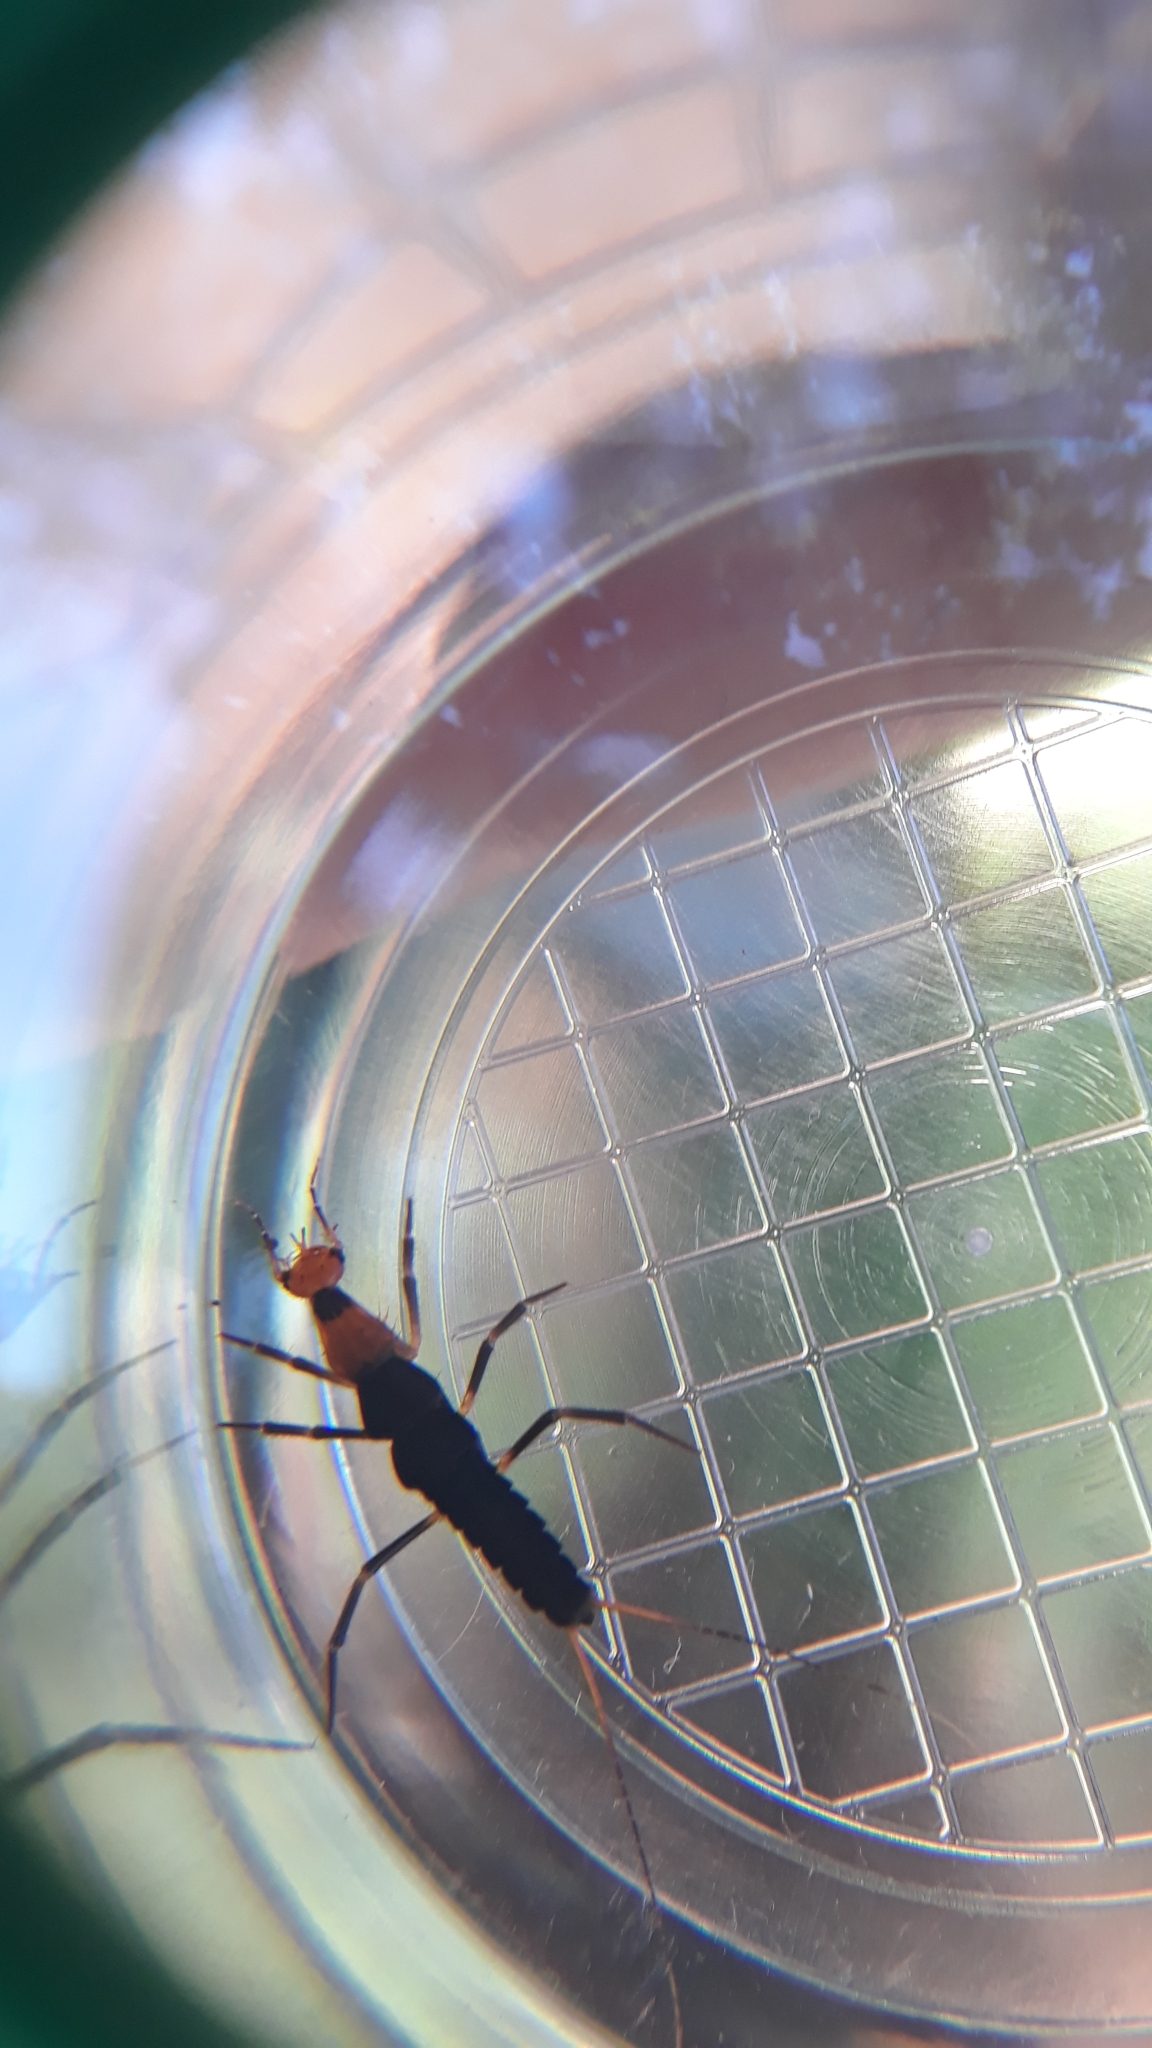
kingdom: Animalia
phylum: Arthropoda
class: Insecta
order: Coleoptera
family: Carabidae
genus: Galerita
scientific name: Galerita bicolor
